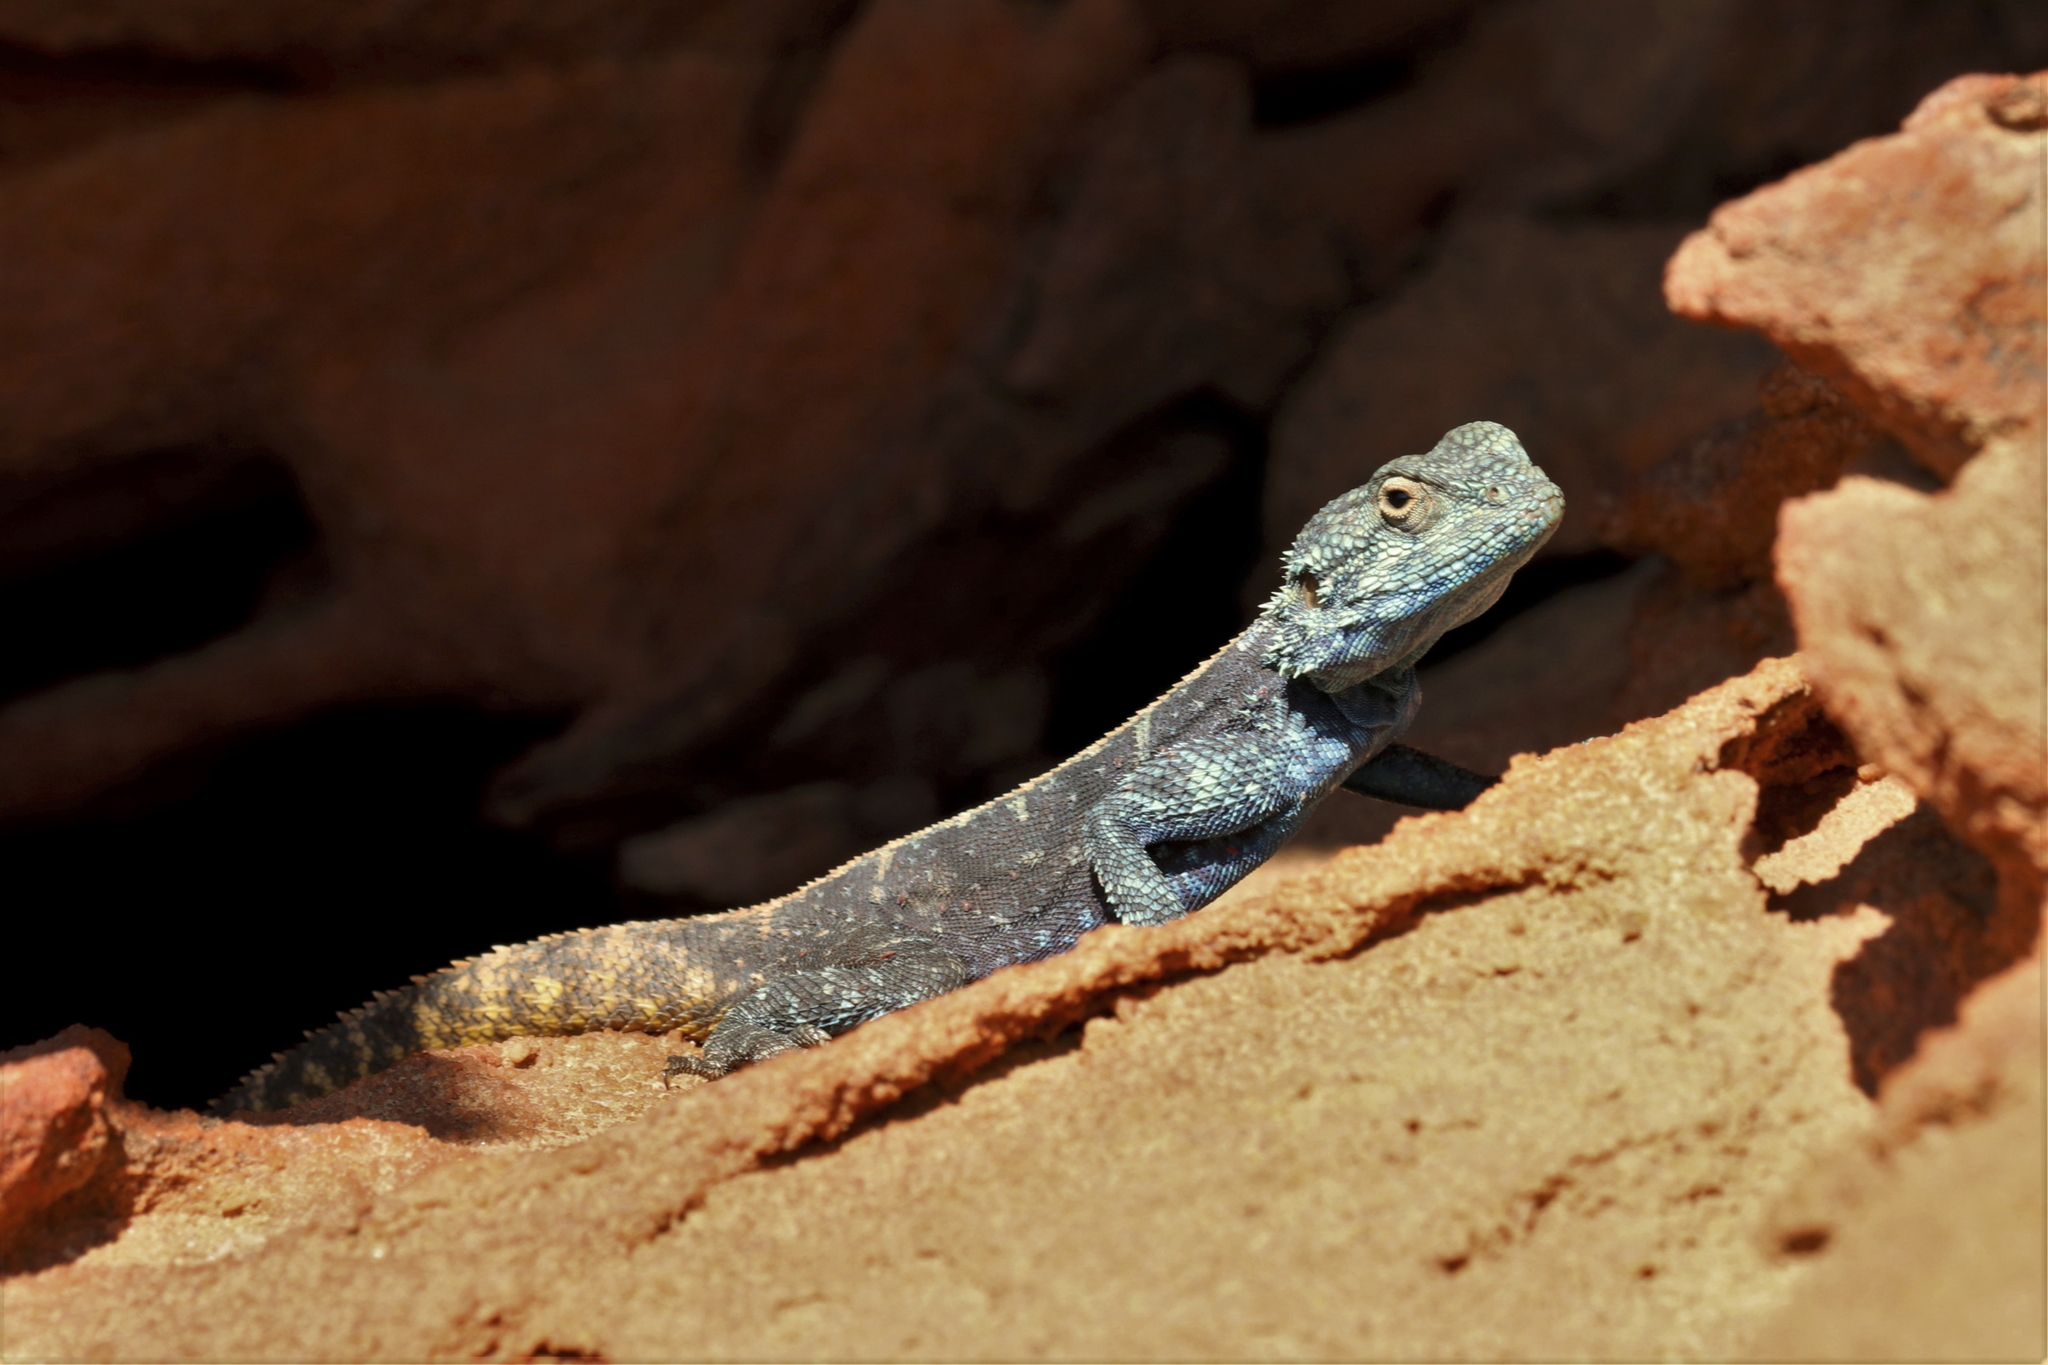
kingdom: Animalia
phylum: Chordata
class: Squamata
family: Agamidae
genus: Agama
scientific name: Agama atra
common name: Southern african rock agama
